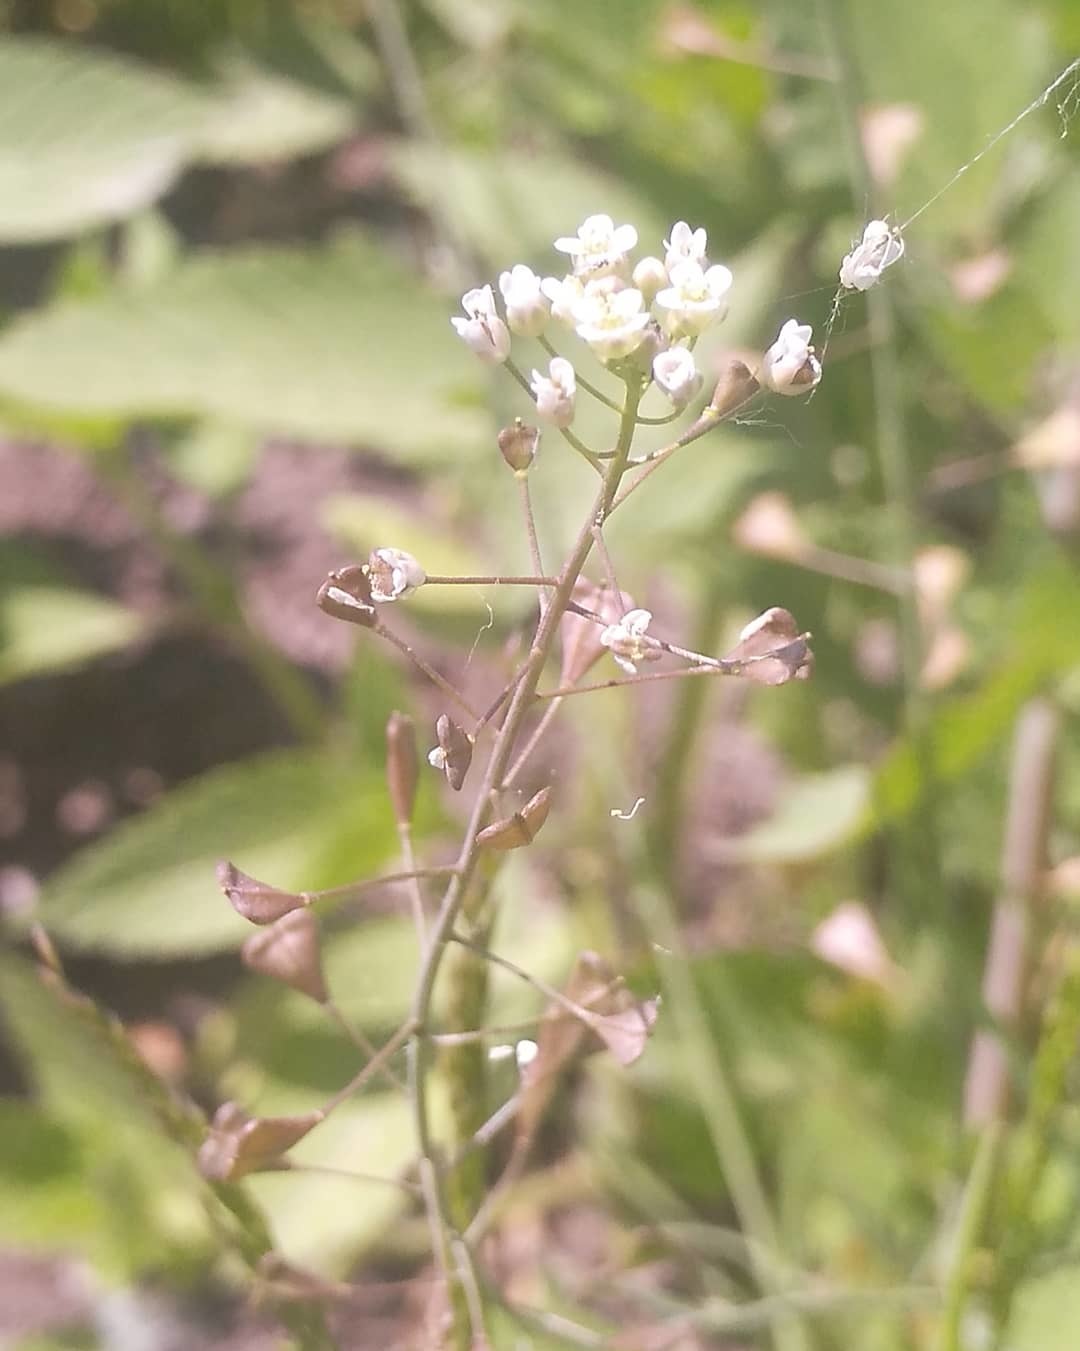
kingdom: Plantae
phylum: Tracheophyta
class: Magnoliopsida
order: Brassicales
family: Brassicaceae
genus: Capsella
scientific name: Capsella bursa-pastoris
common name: Shepherd's purse
